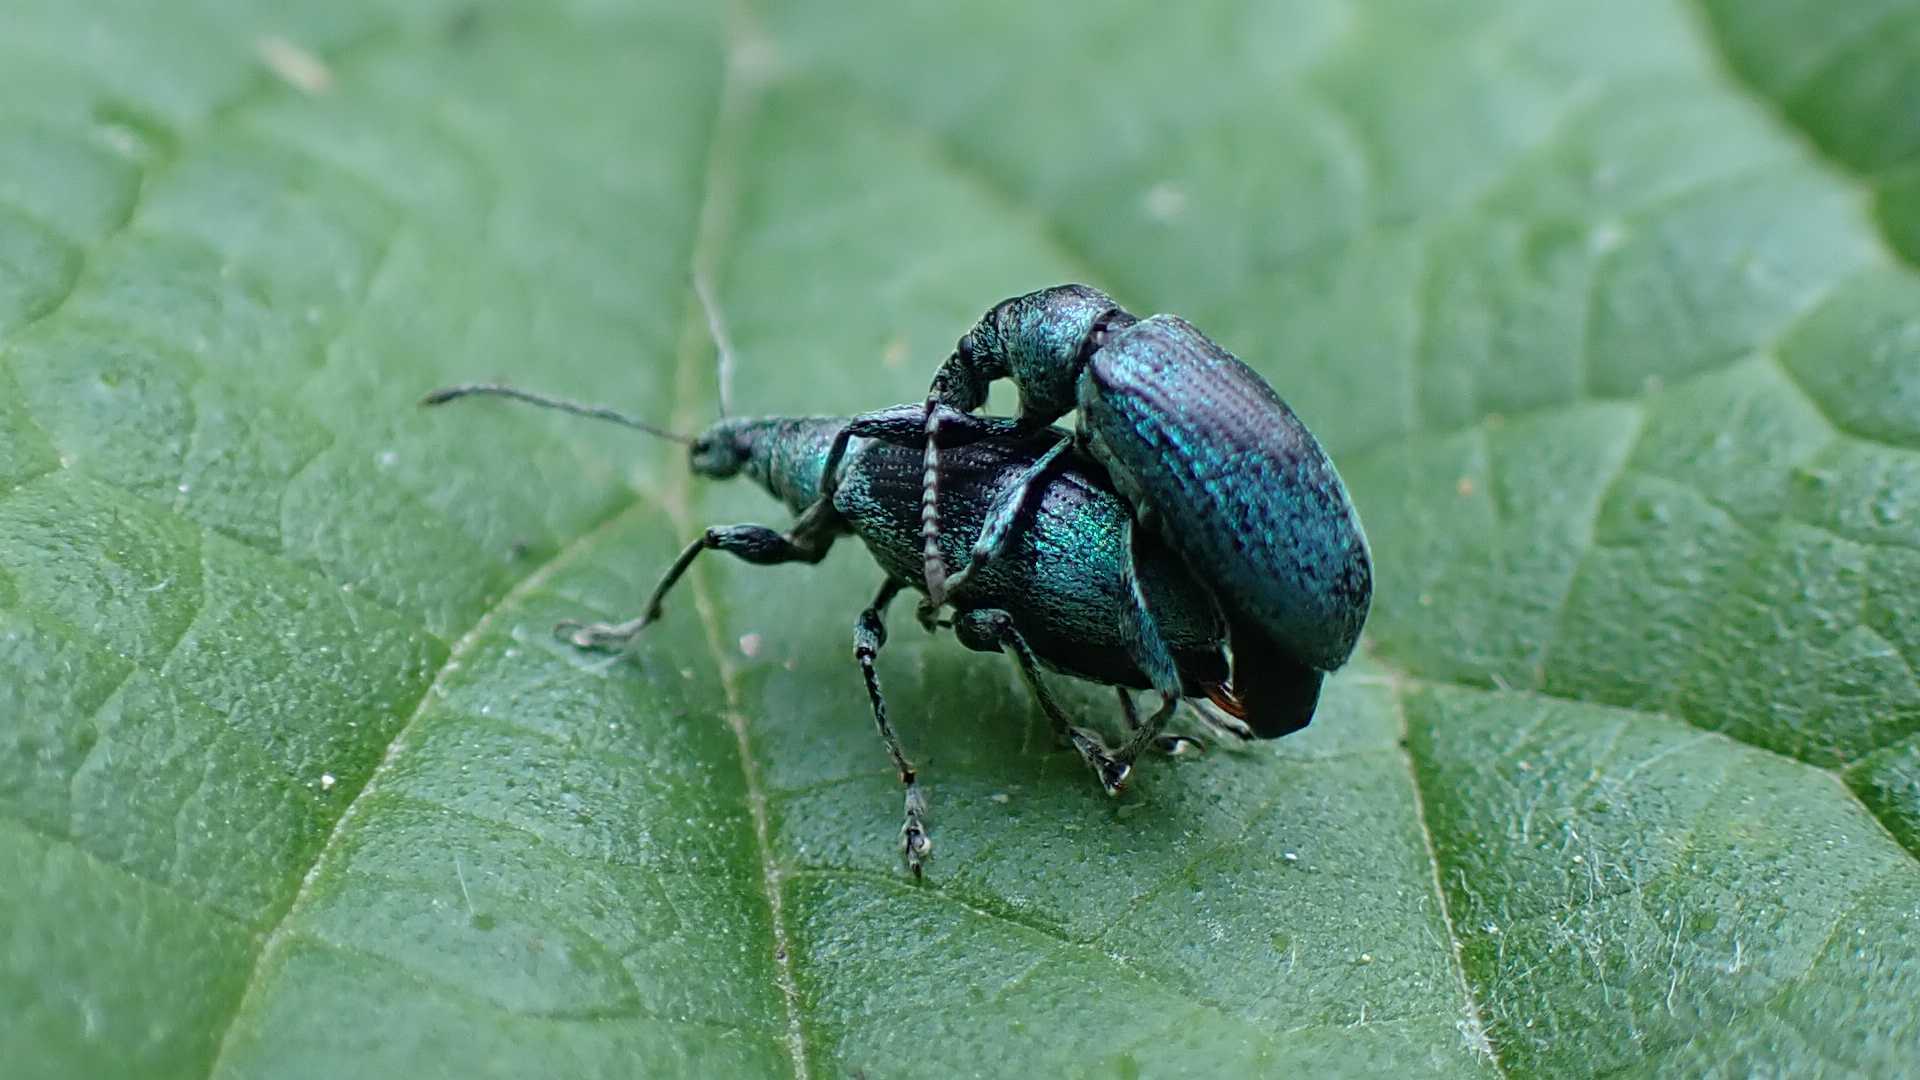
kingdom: Animalia
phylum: Arthropoda
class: Insecta
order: Coleoptera
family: Curculionidae
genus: Phyllobius
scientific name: Phyllobius pomaceus
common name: Green nettle weevil
